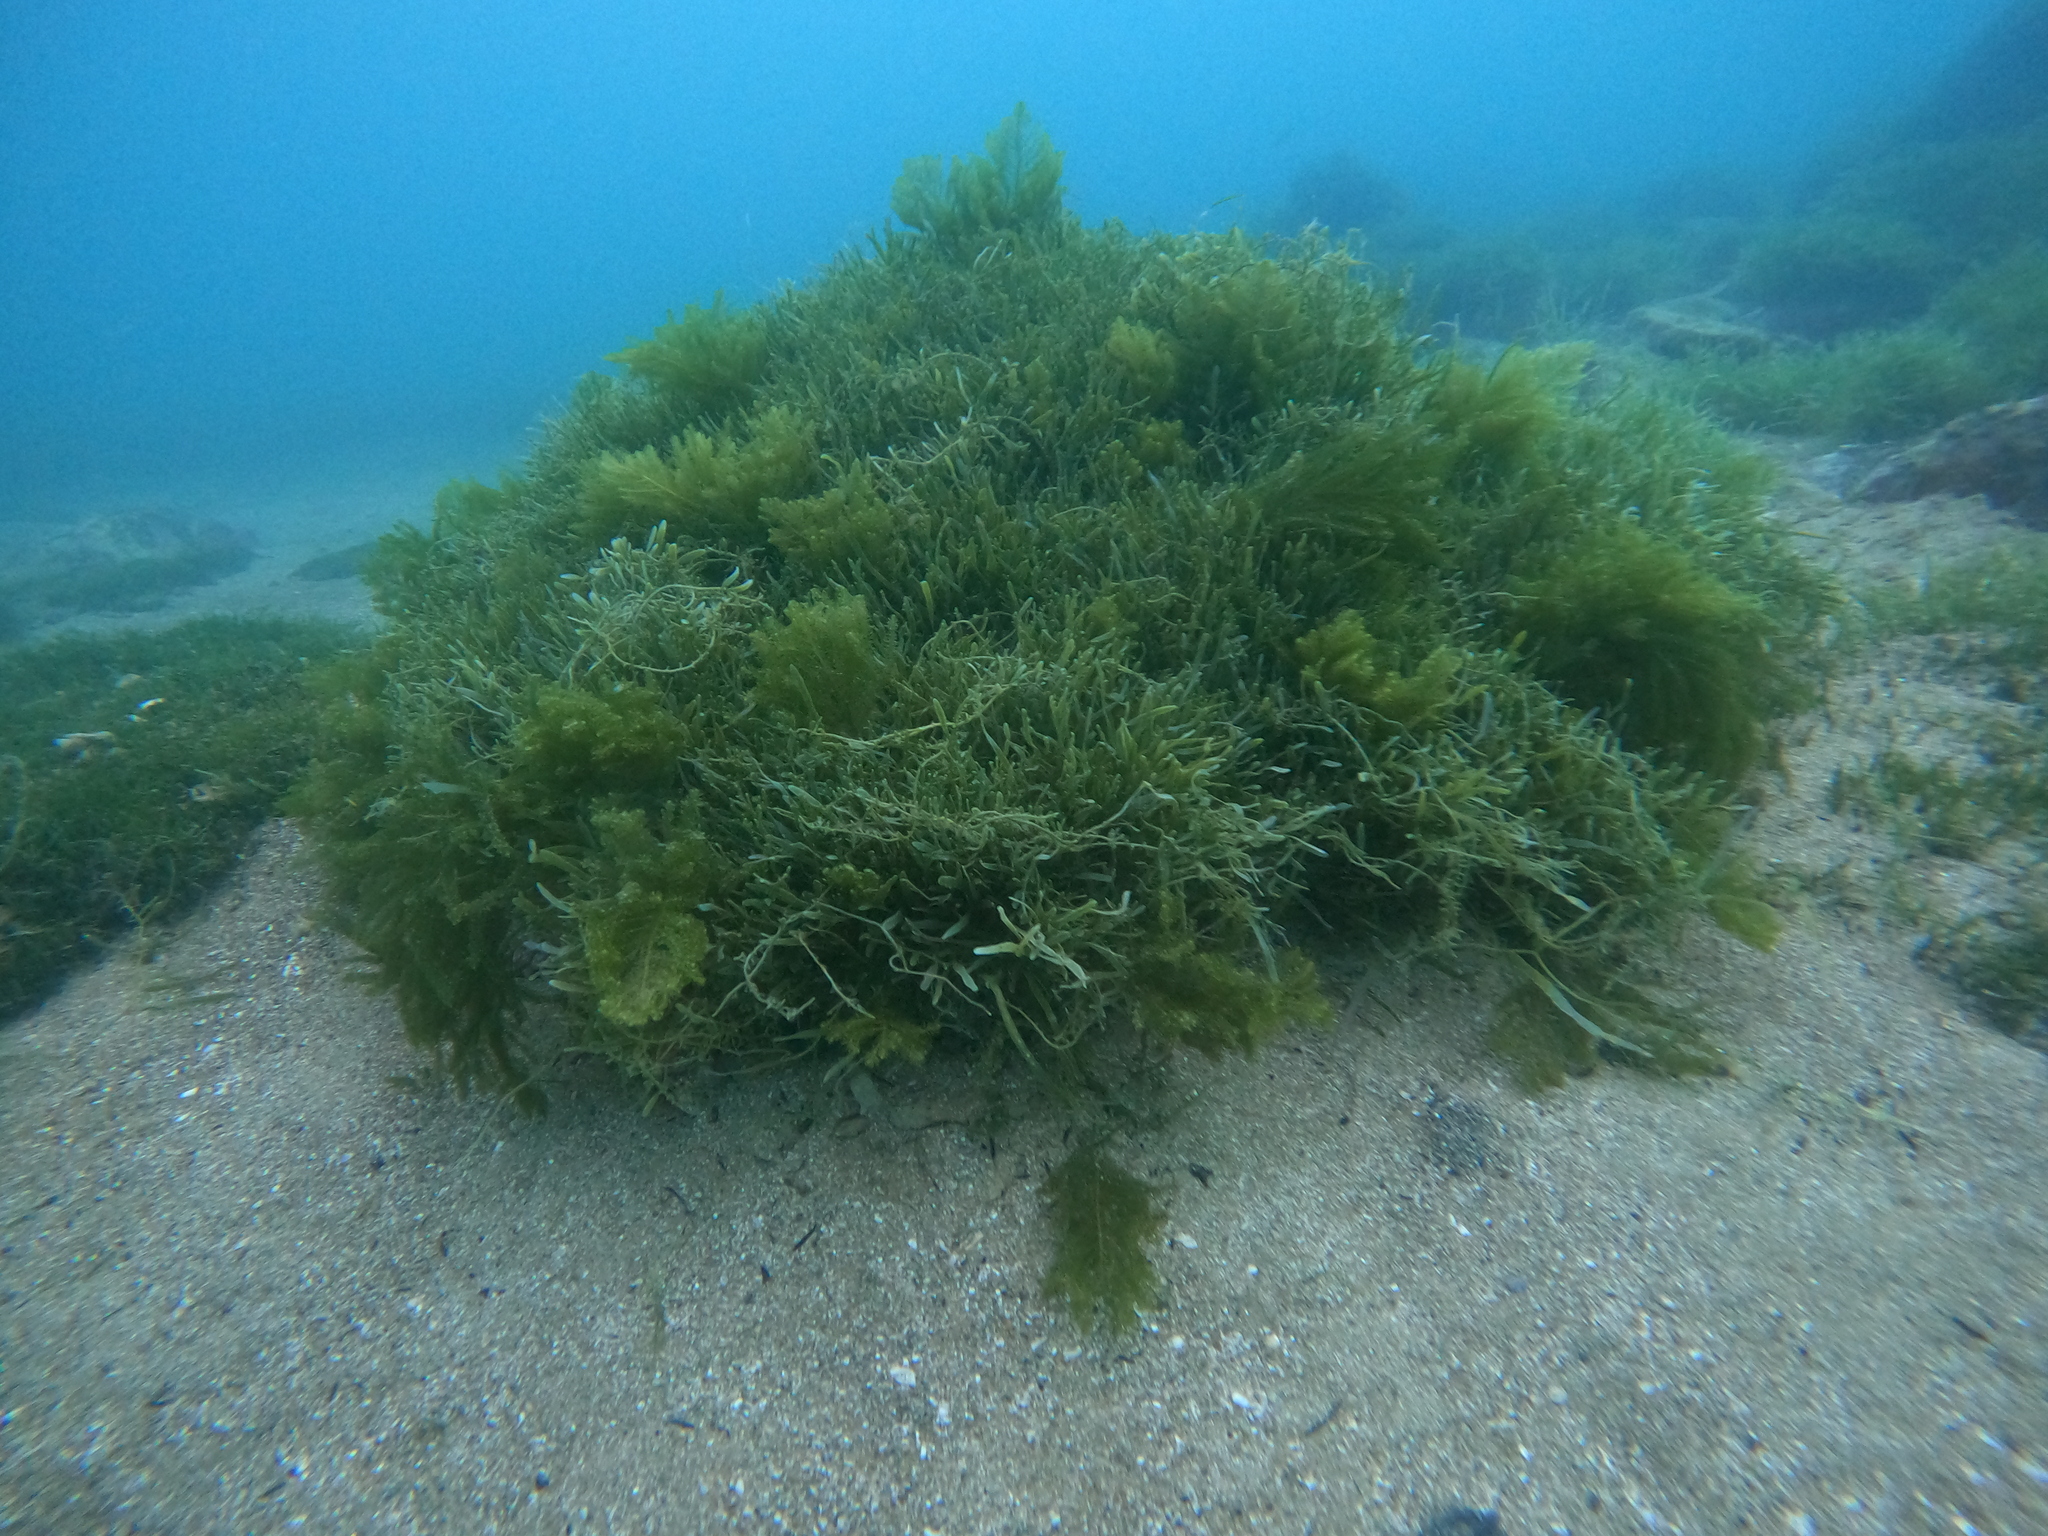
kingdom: Plantae
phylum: Chlorophyta
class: Ulvophyceae
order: Bryopsidales
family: Caulerpaceae
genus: Caulerpa
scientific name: Caulerpa flexilis
